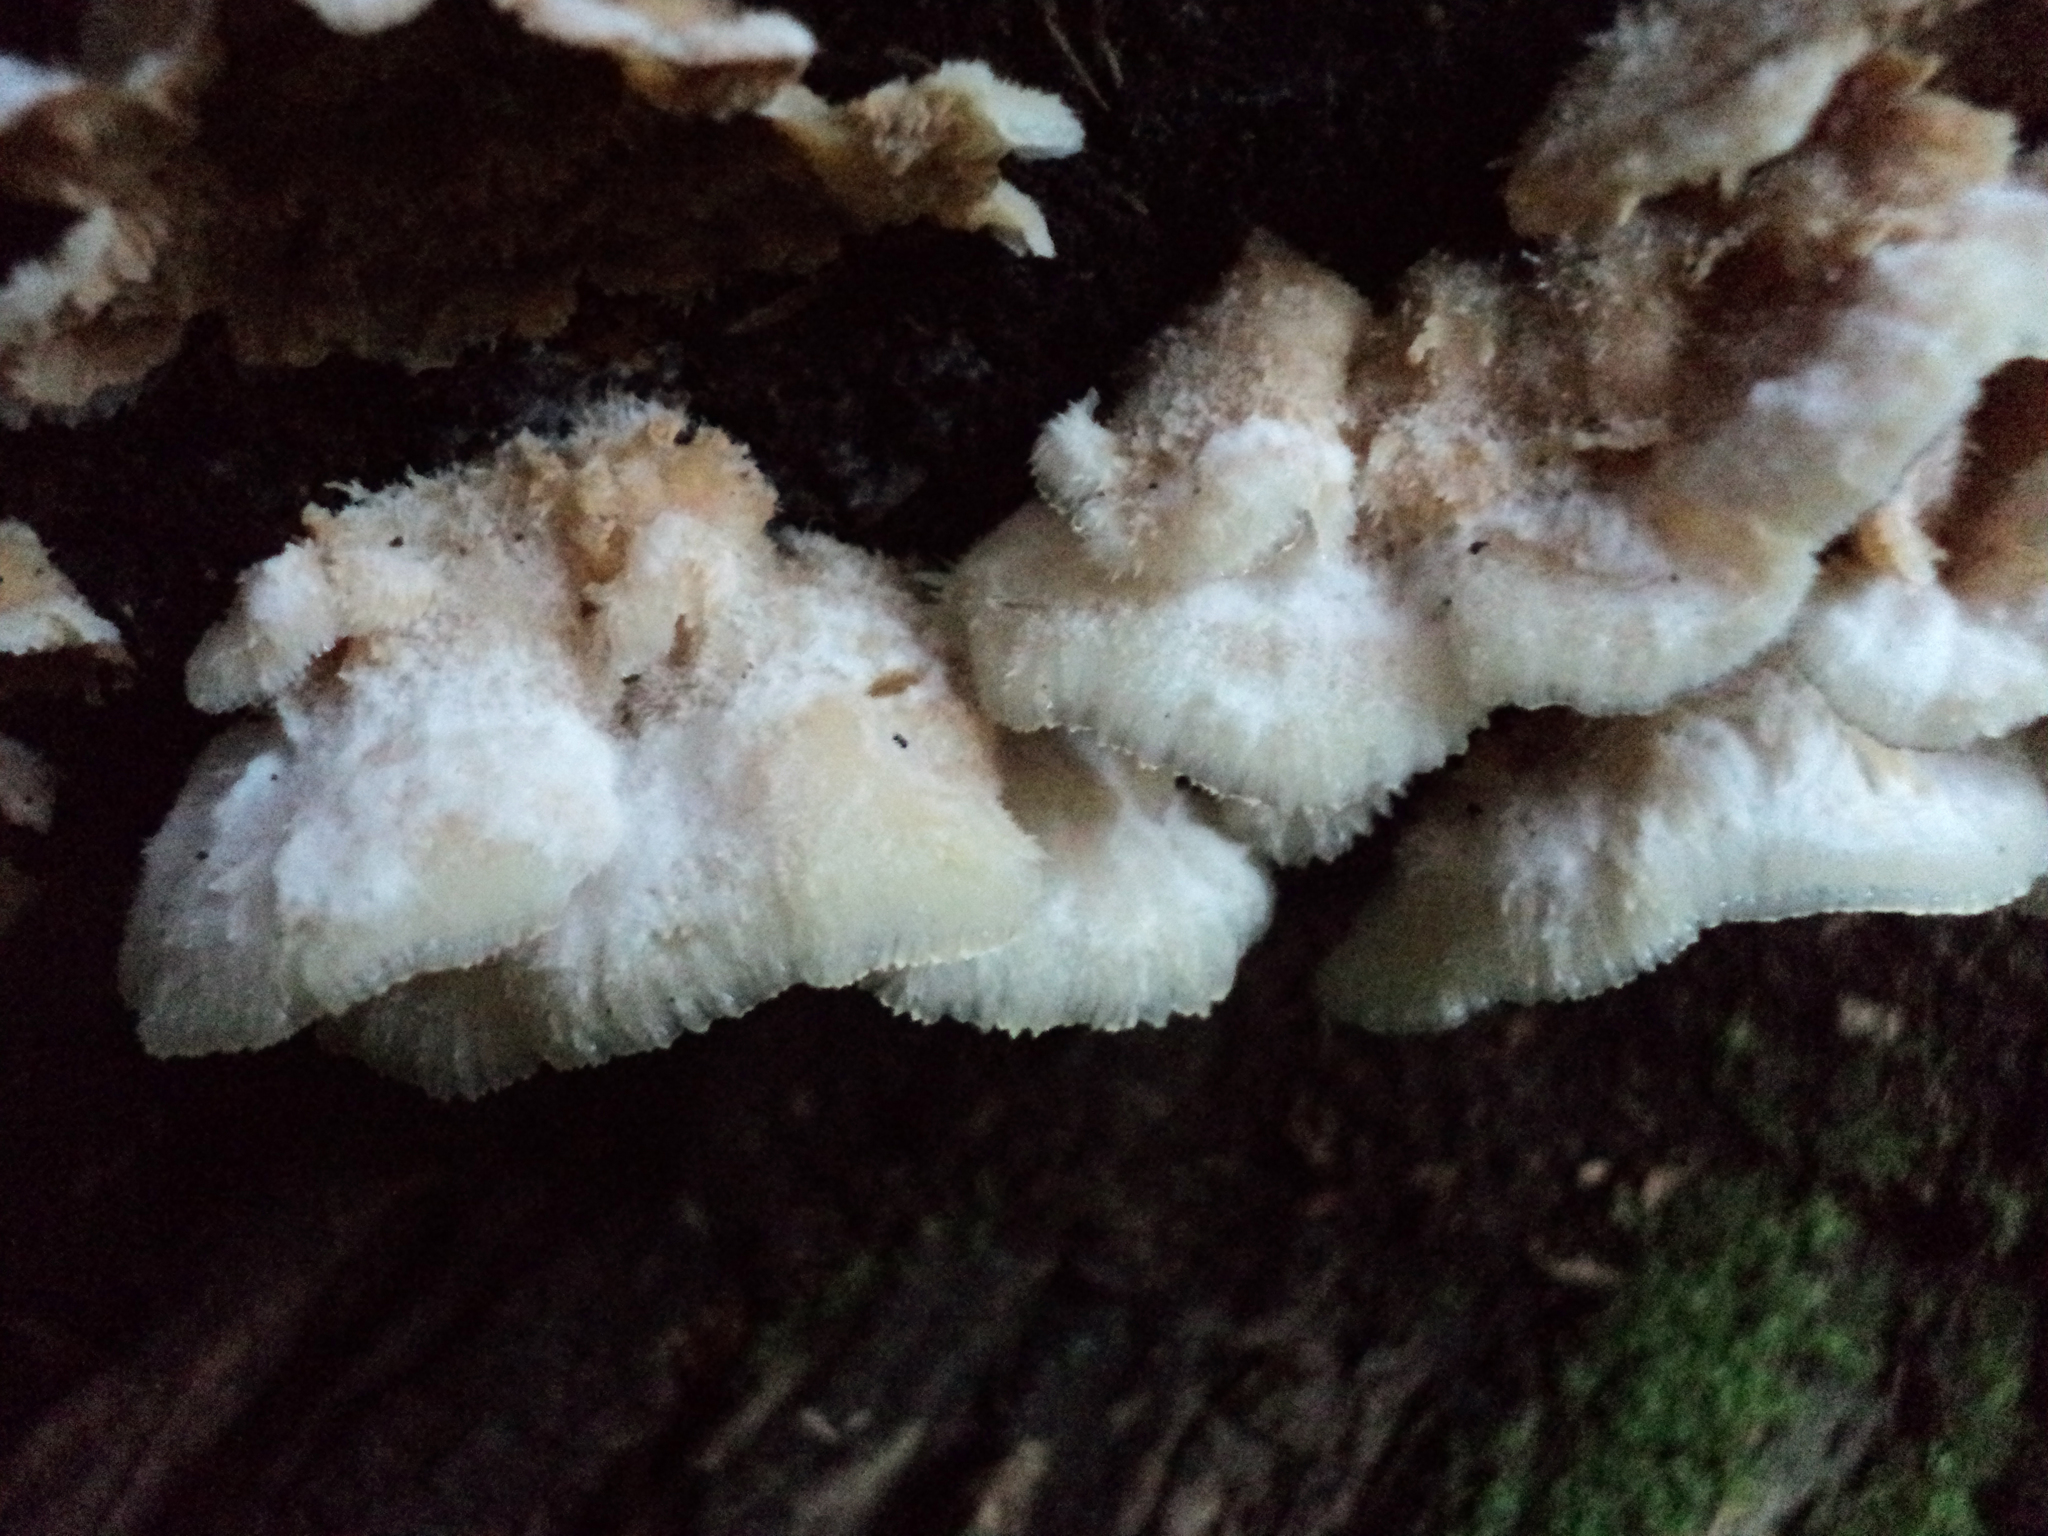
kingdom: Fungi
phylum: Basidiomycota
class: Agaricomycetes
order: Polyporales
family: Meruliaceae
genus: Phlebia
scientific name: Phlebia tremellosa
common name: Jelly rot
